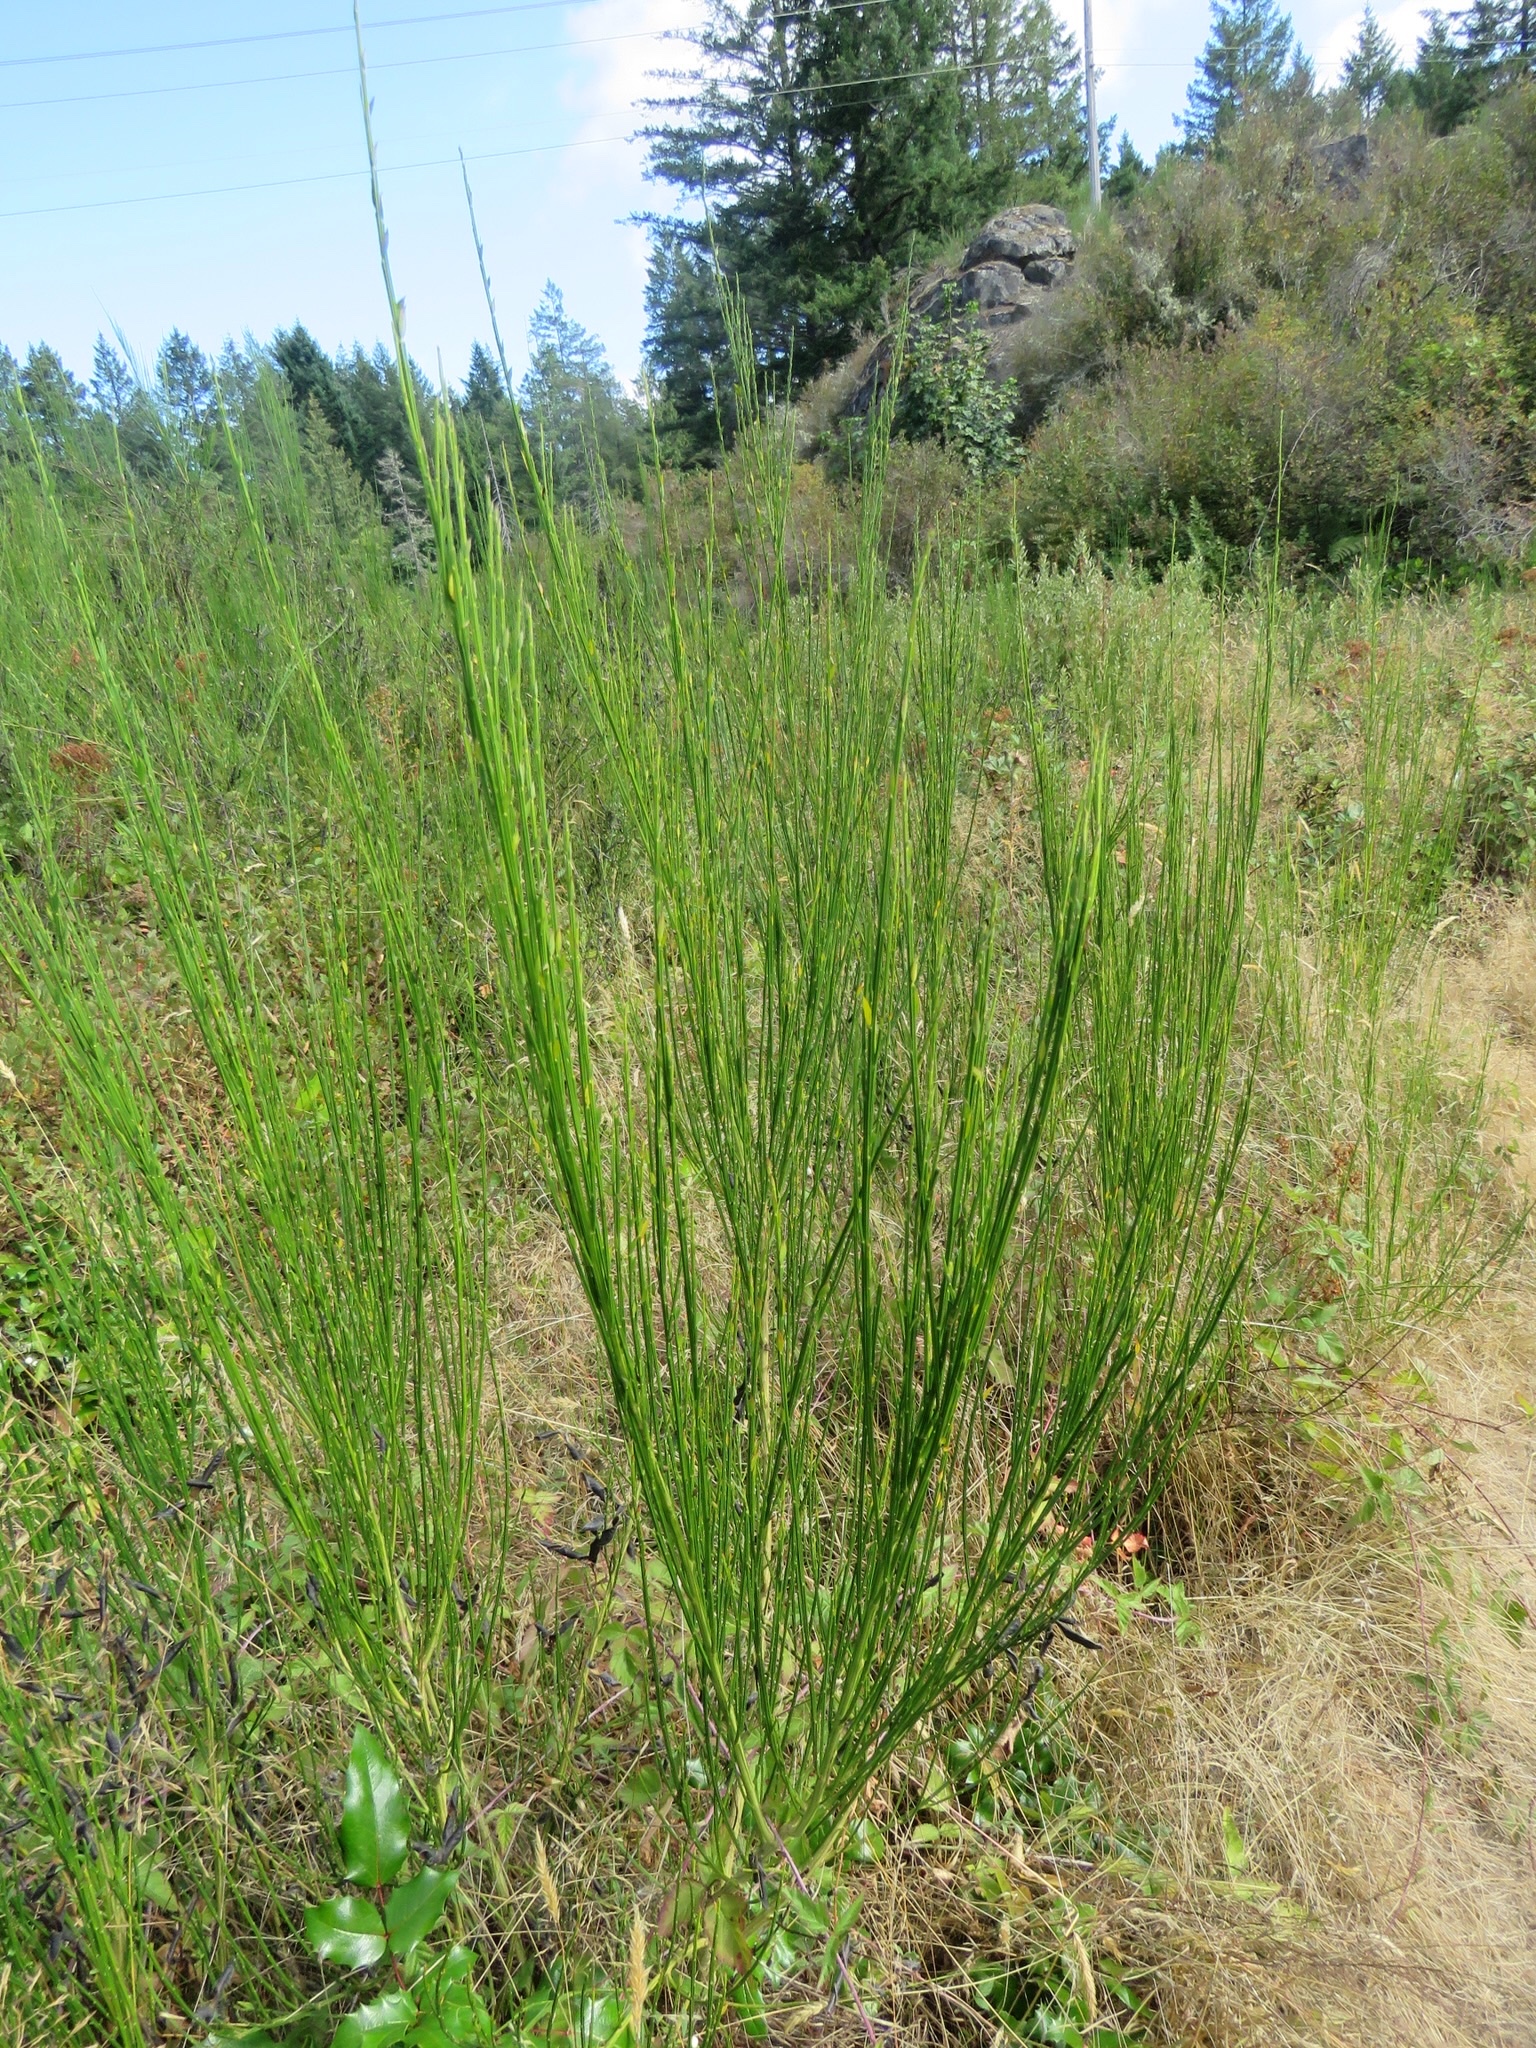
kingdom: Plantae
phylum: Tracheophyta
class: Magnoliopsida
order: Fabales
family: Fabaceae
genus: Cytisus
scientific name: Cytisus scoparius
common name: Scotch broom
